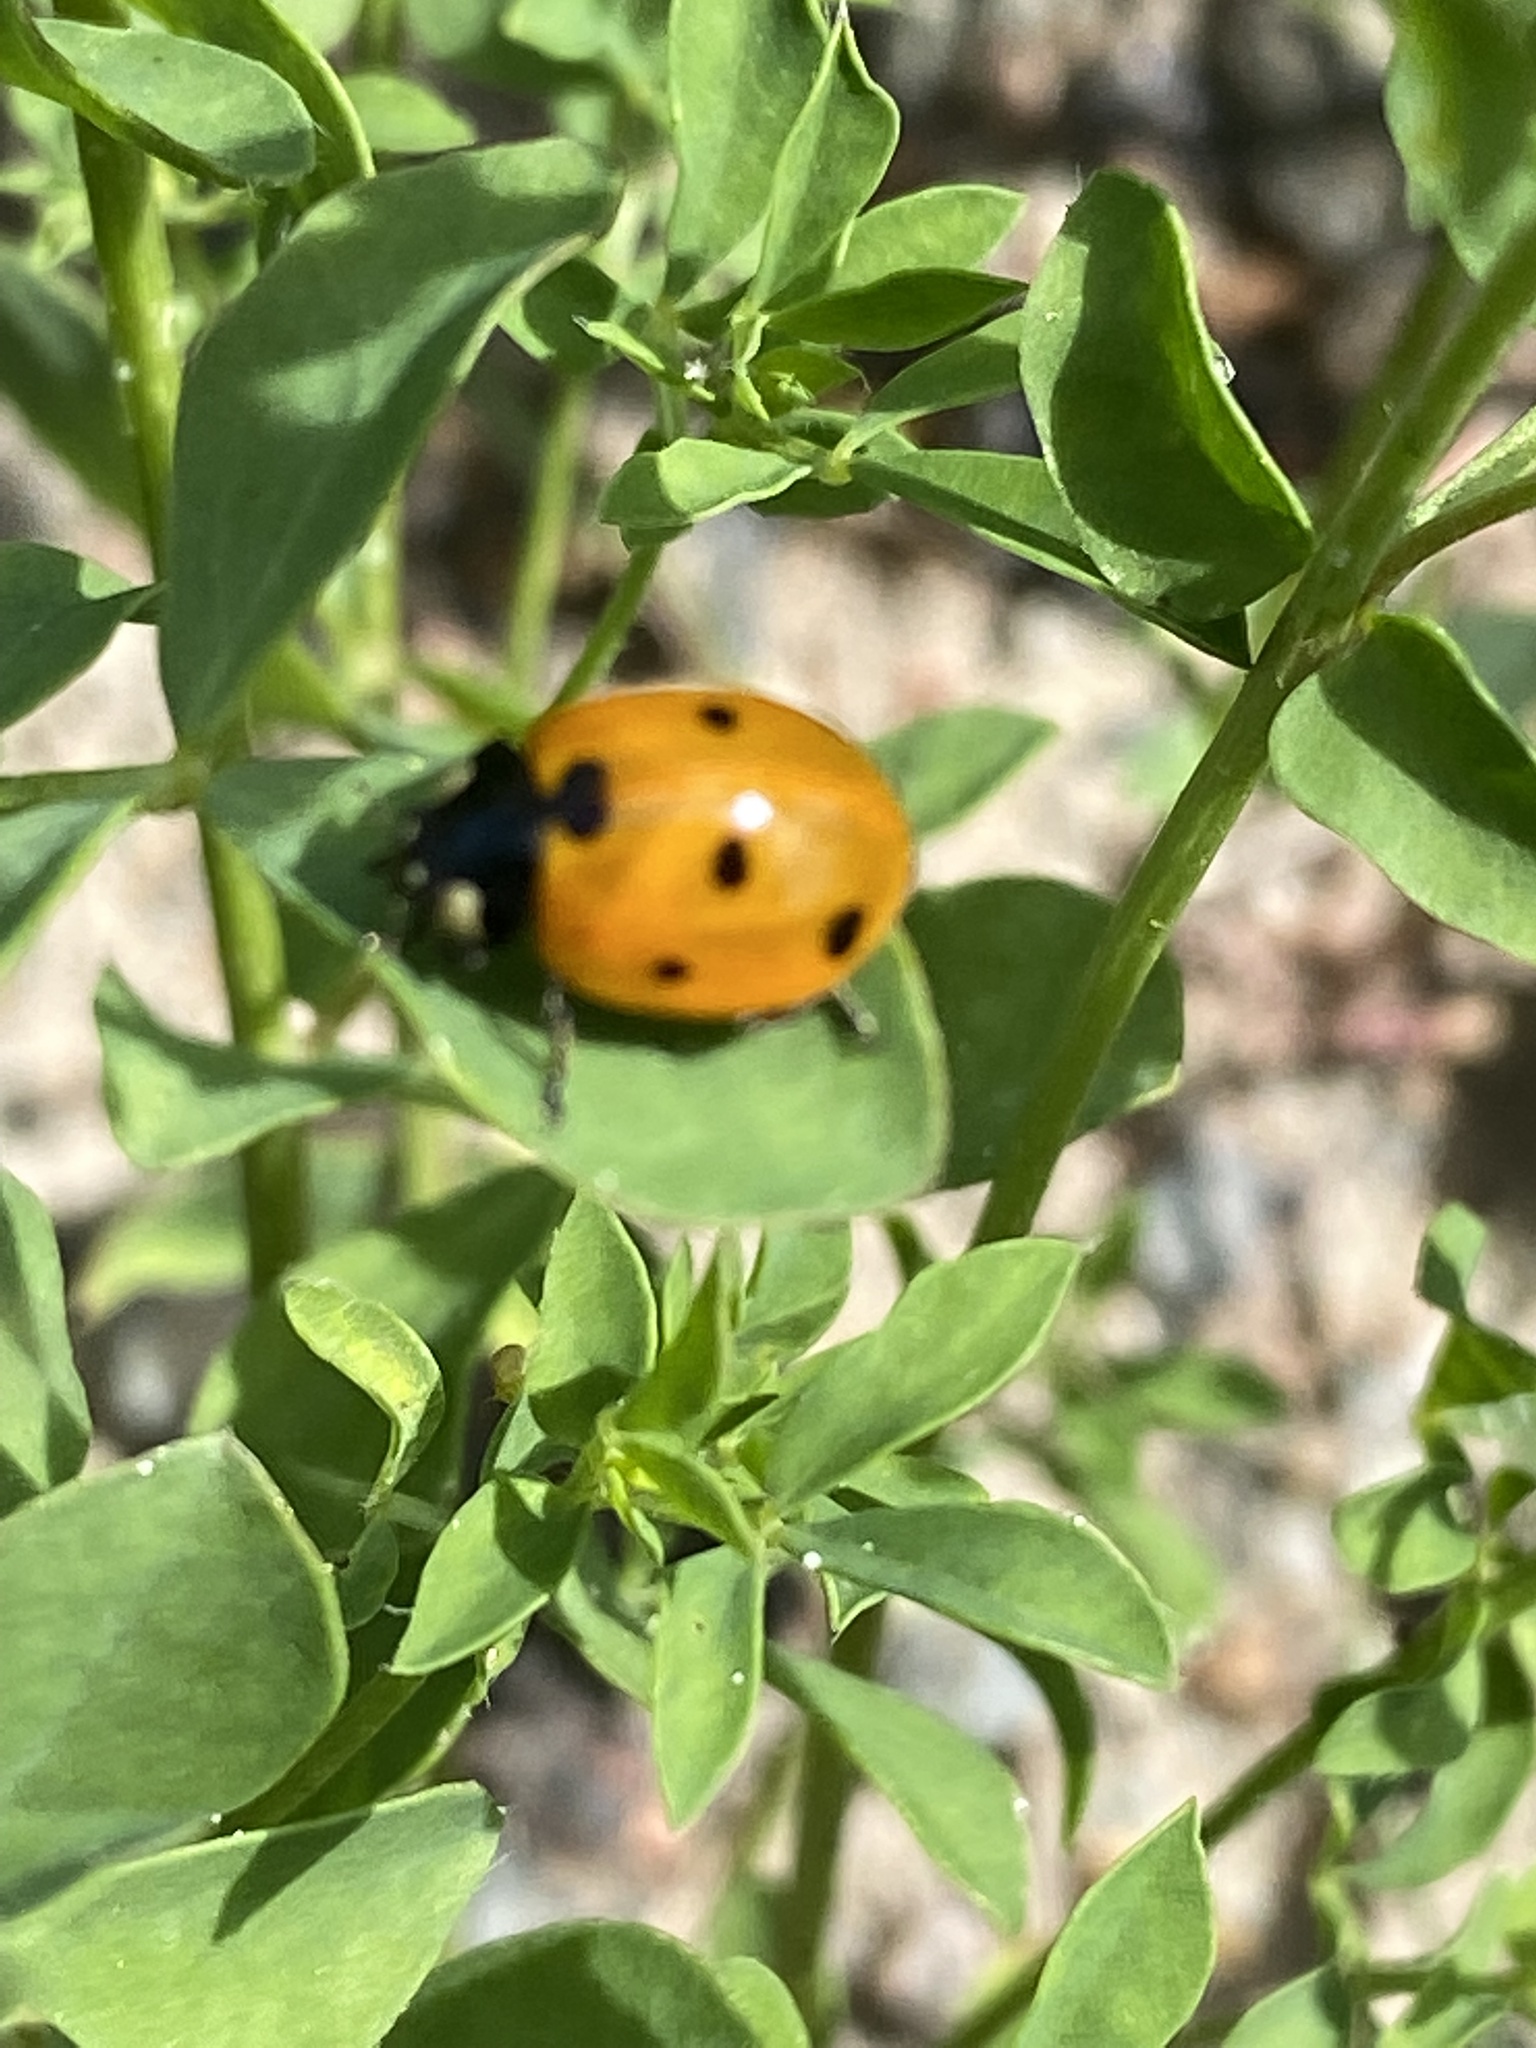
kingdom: Animalia
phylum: Arthropoda
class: Insecta
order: Coleoptera
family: Coccinellidae
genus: Coccinella
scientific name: Coccinella septempunctata
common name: Sevenspotted lady beetle
